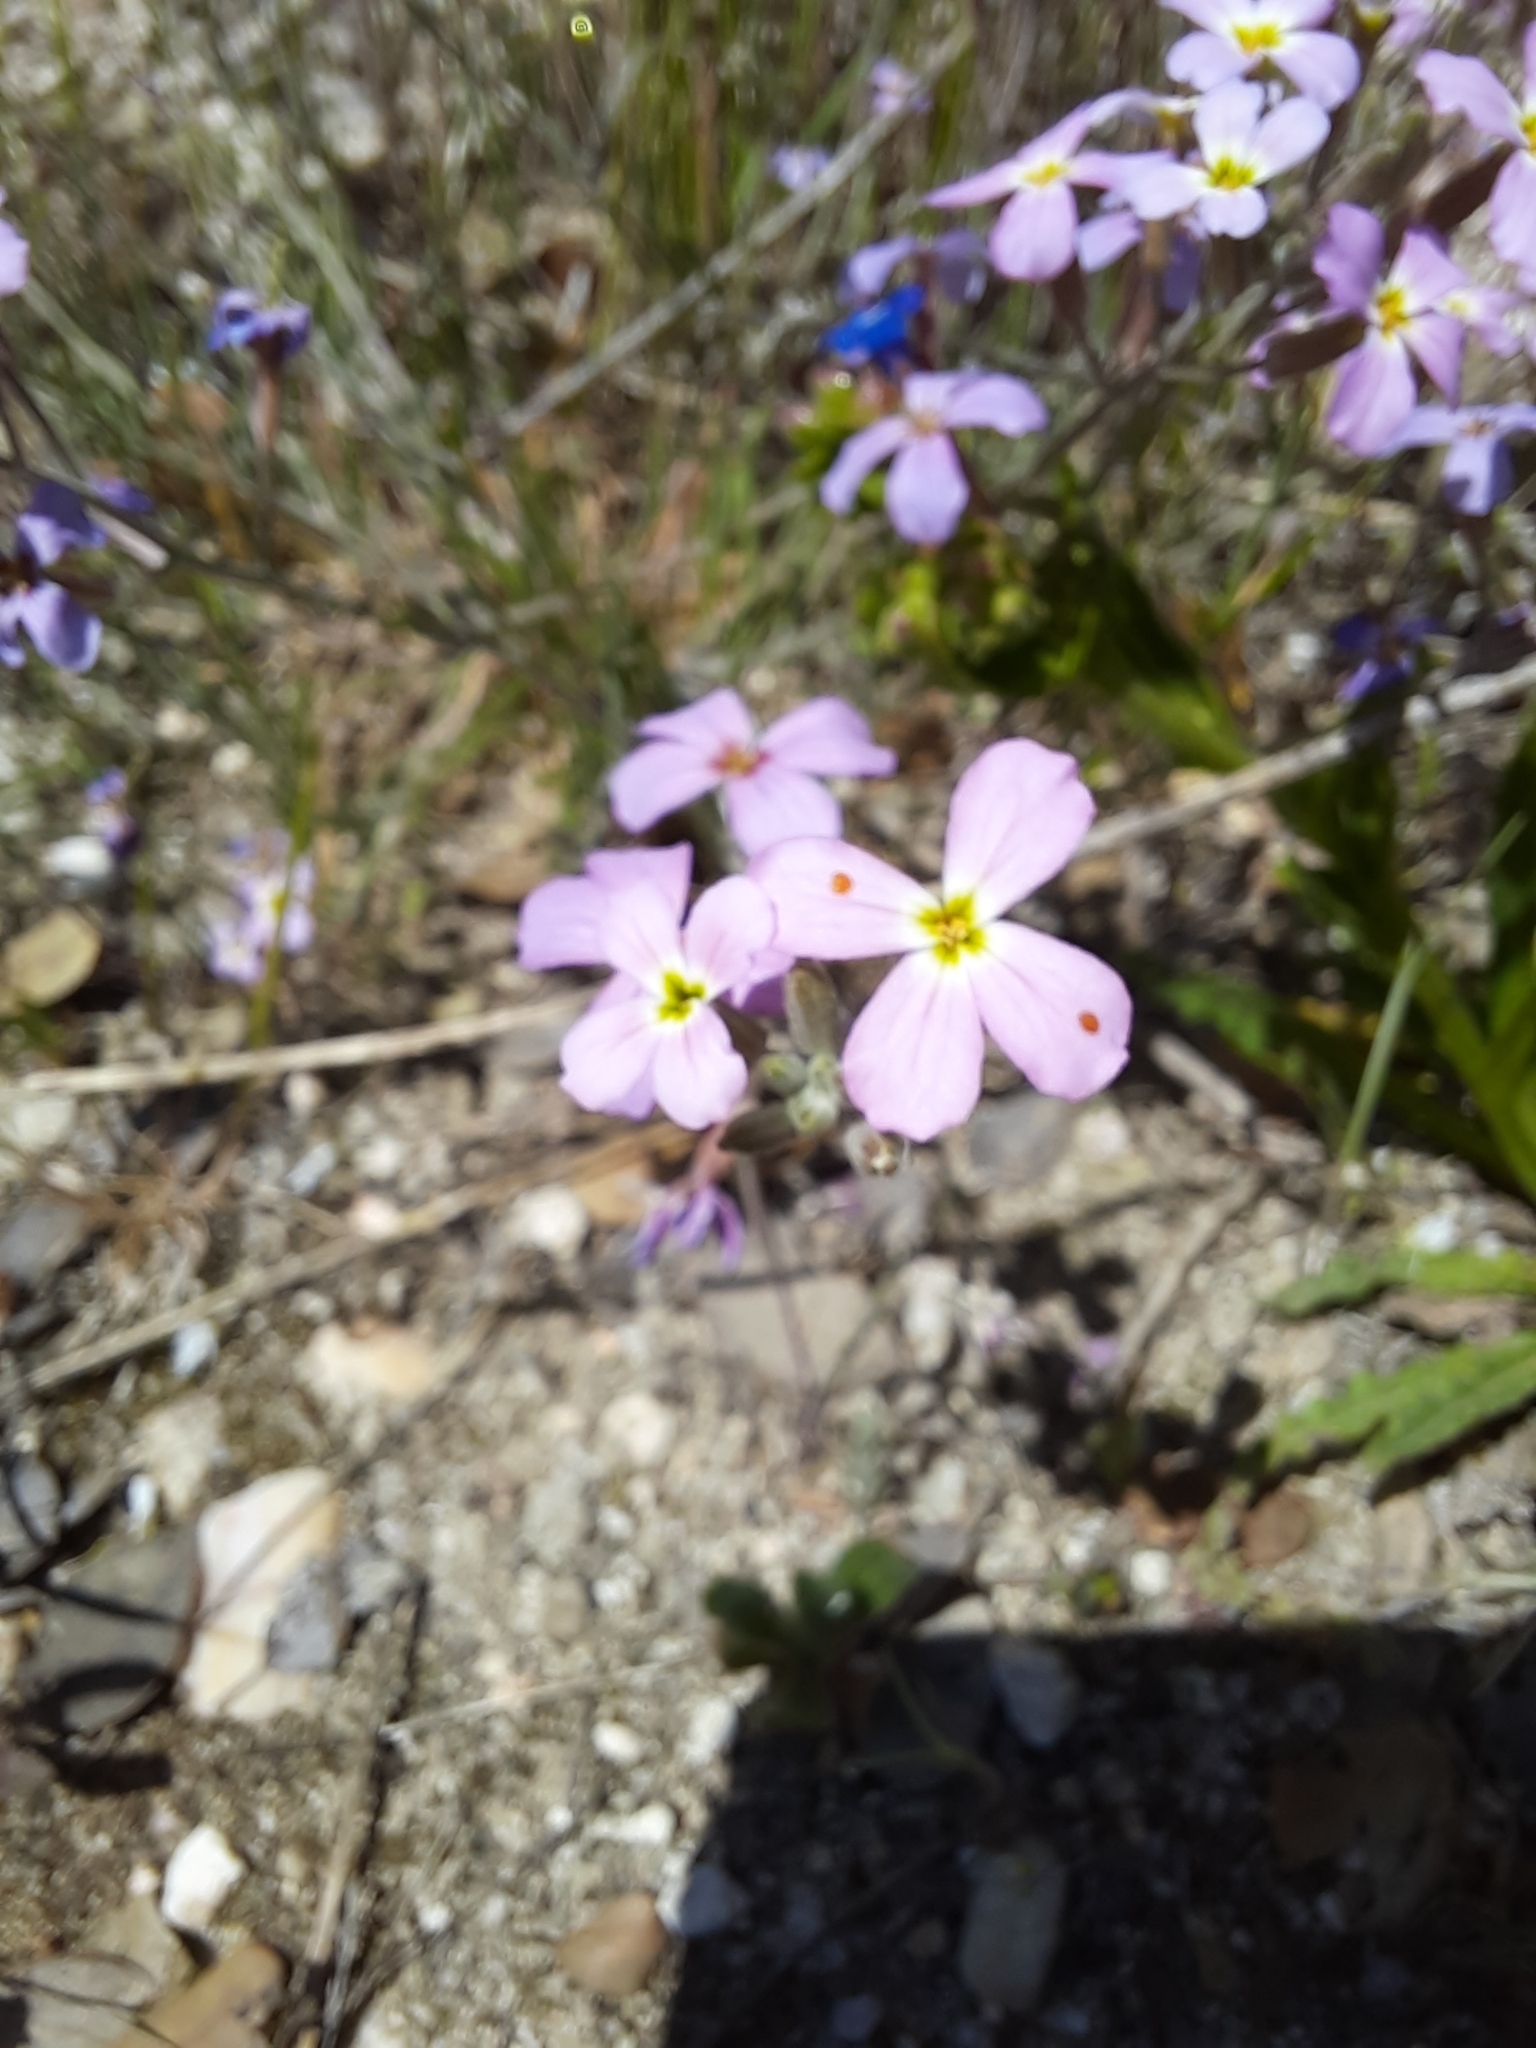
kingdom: Plantae
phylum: Tracheophyta
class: Magnoliopsida
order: Brassicales
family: Brassicaceae
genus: Marcuskochia
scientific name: Marcuskochia triloba
